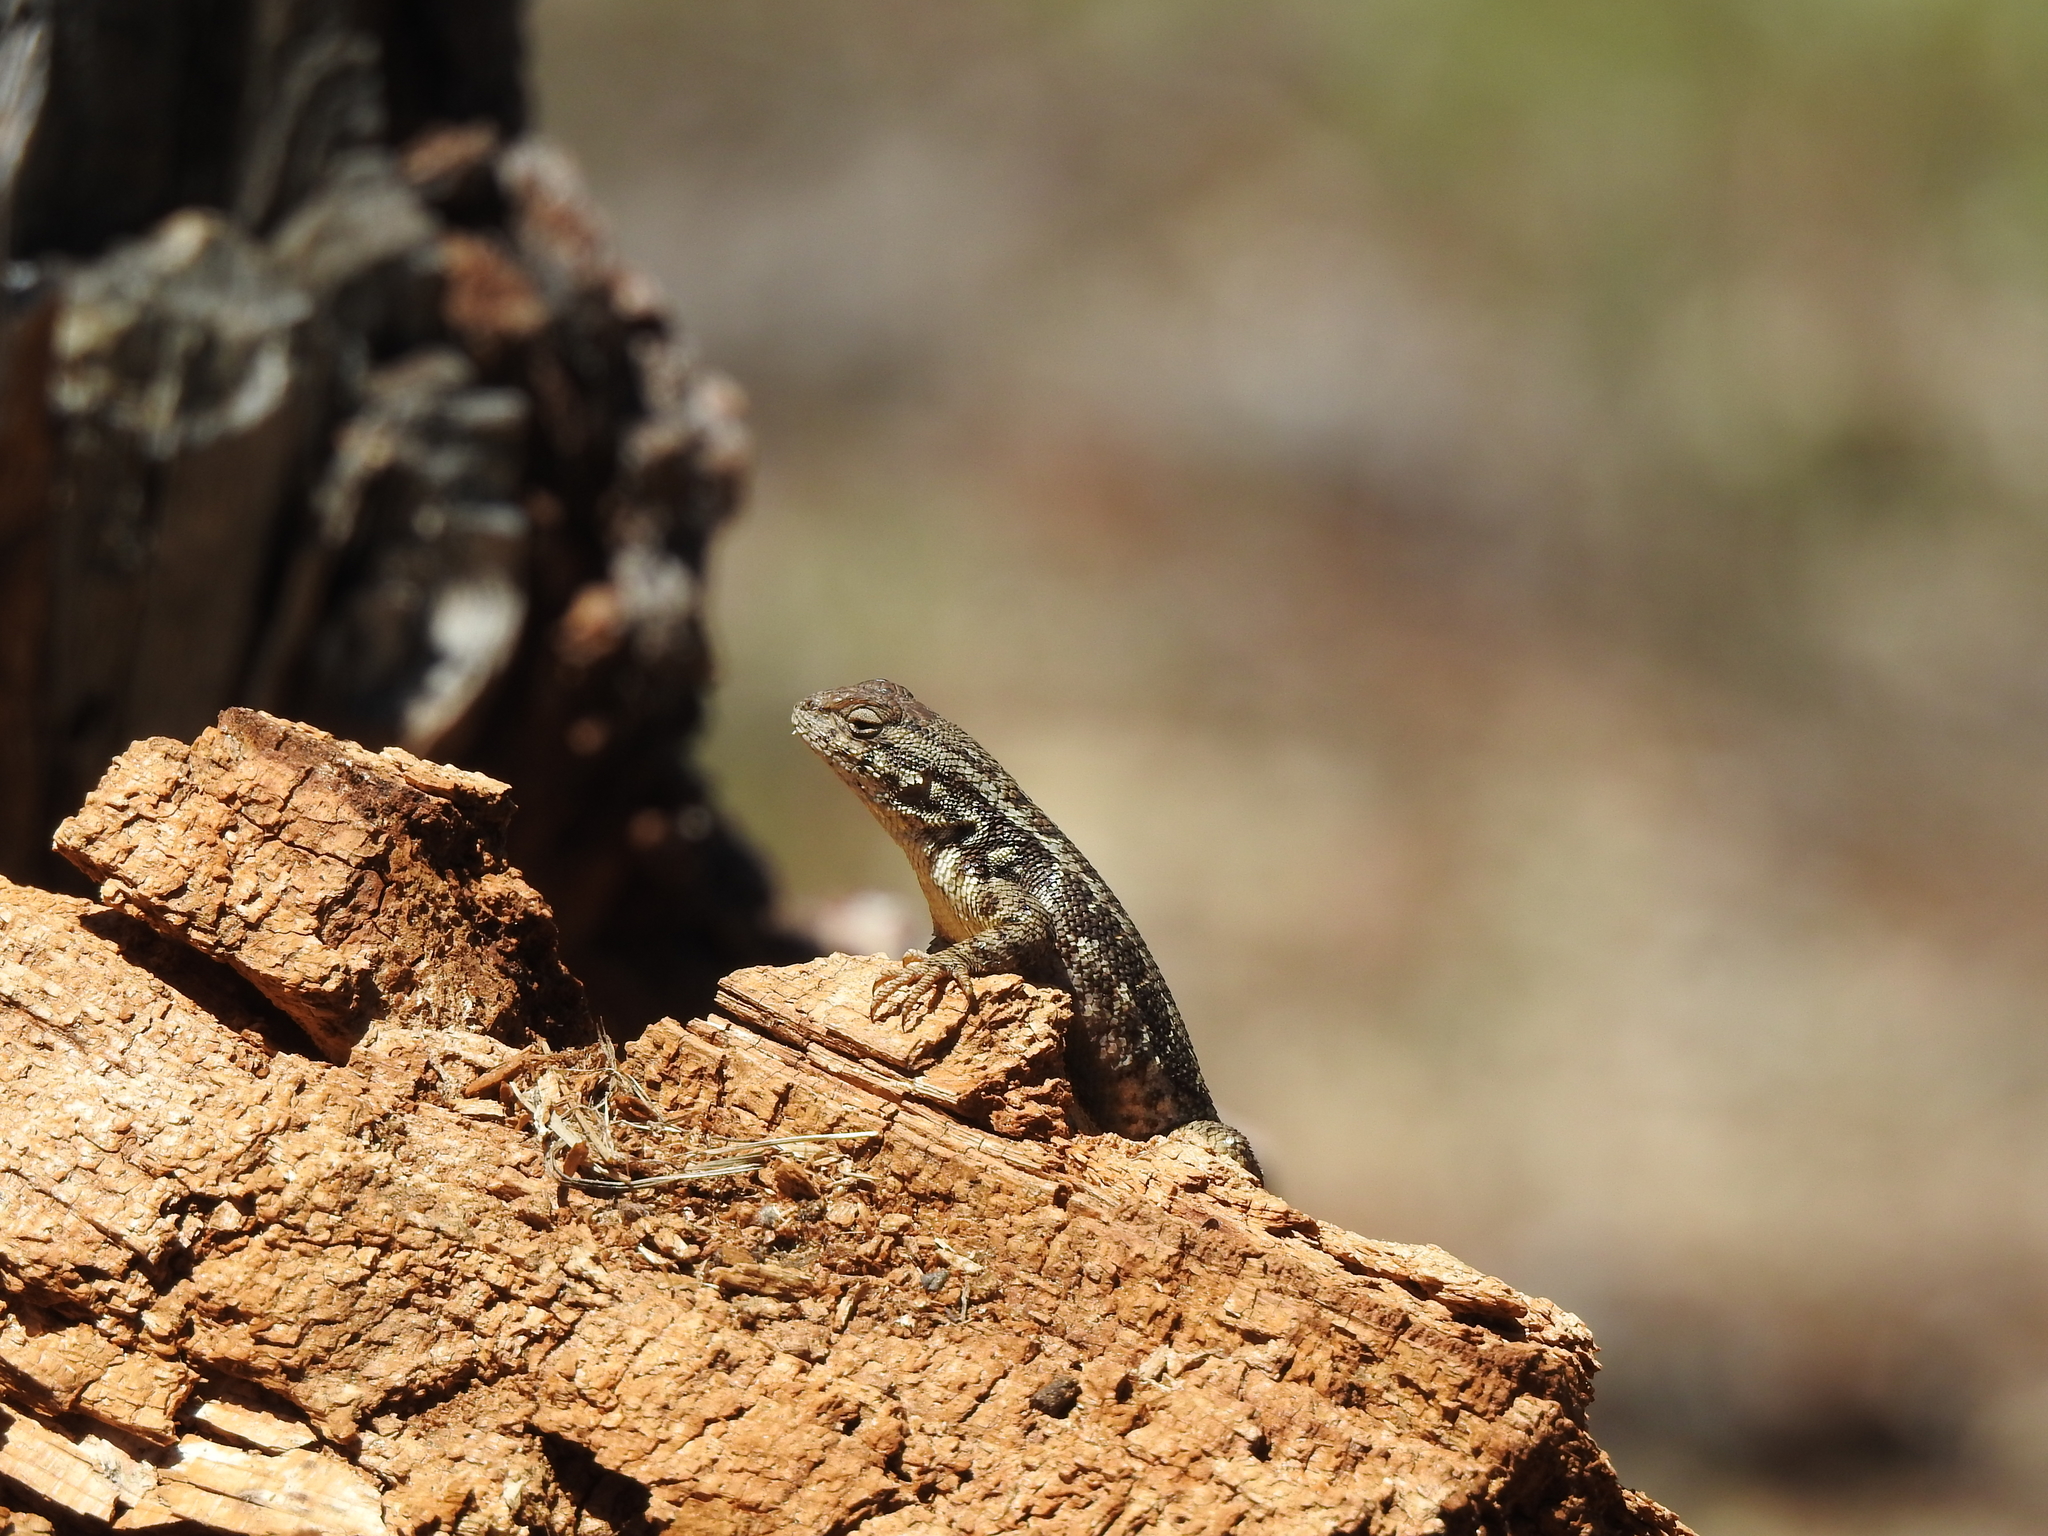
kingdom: Animalia
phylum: Chordata
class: Squamata
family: Phrynosomatidae
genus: Sceloporus
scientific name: Sceloporus graciosus
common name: Sagebrush lizard
